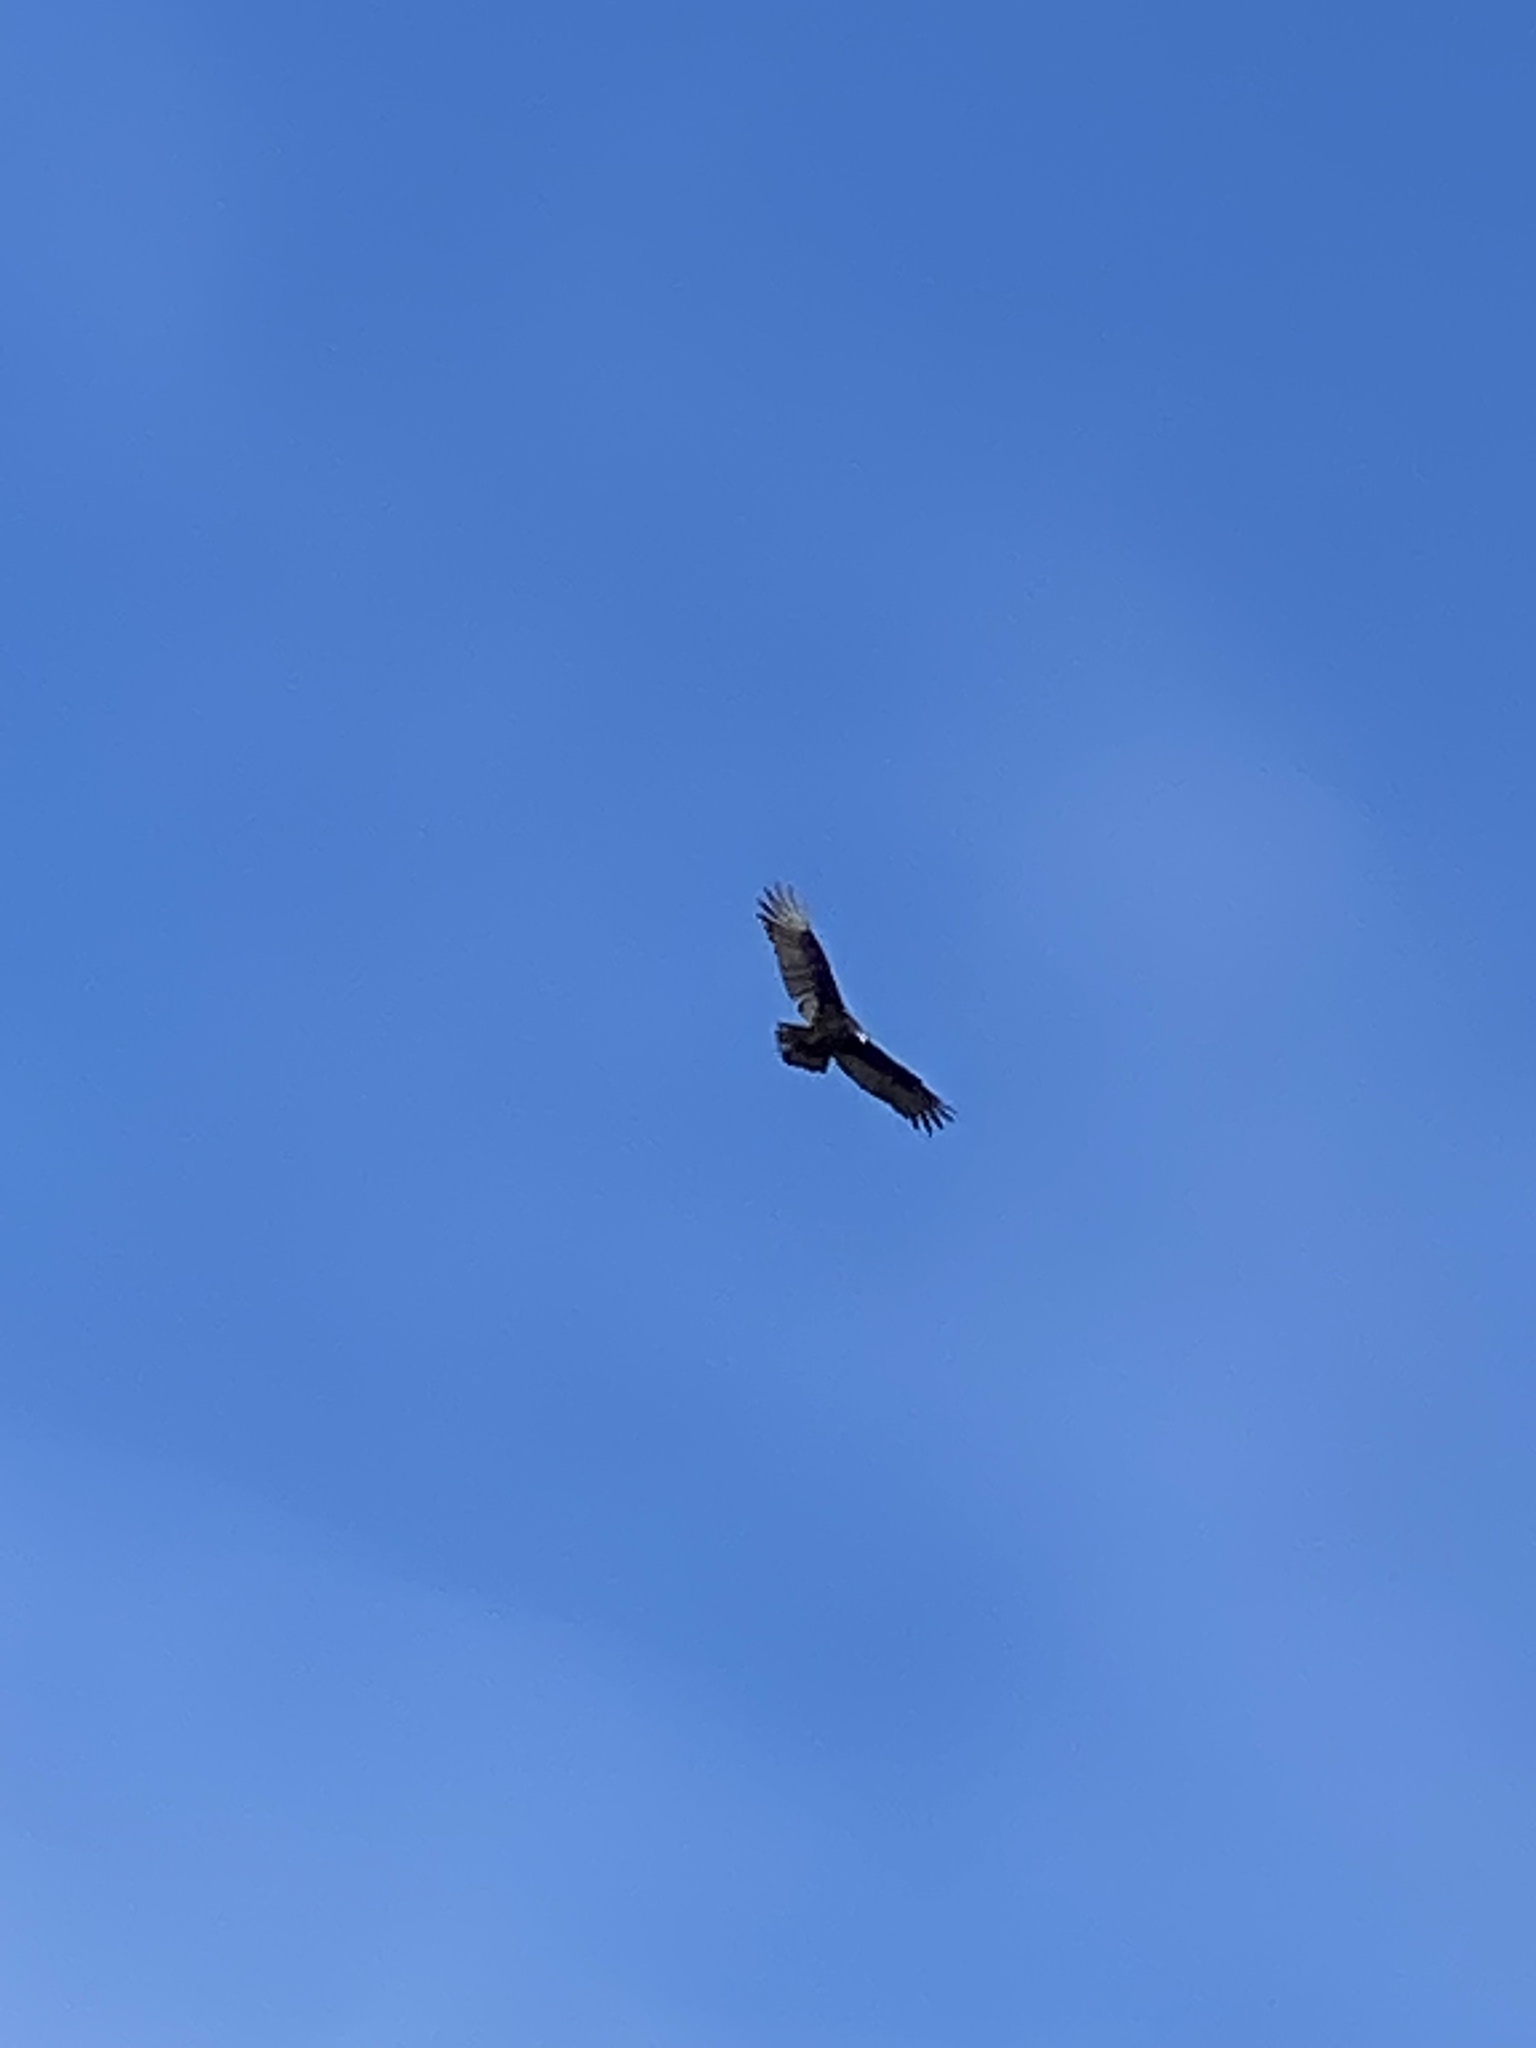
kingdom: Animalia
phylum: Chordata
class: Aves
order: Accipitriformes
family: Cathartidae
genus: Cathartes
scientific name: Cathartes aura
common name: Turkey vulture
